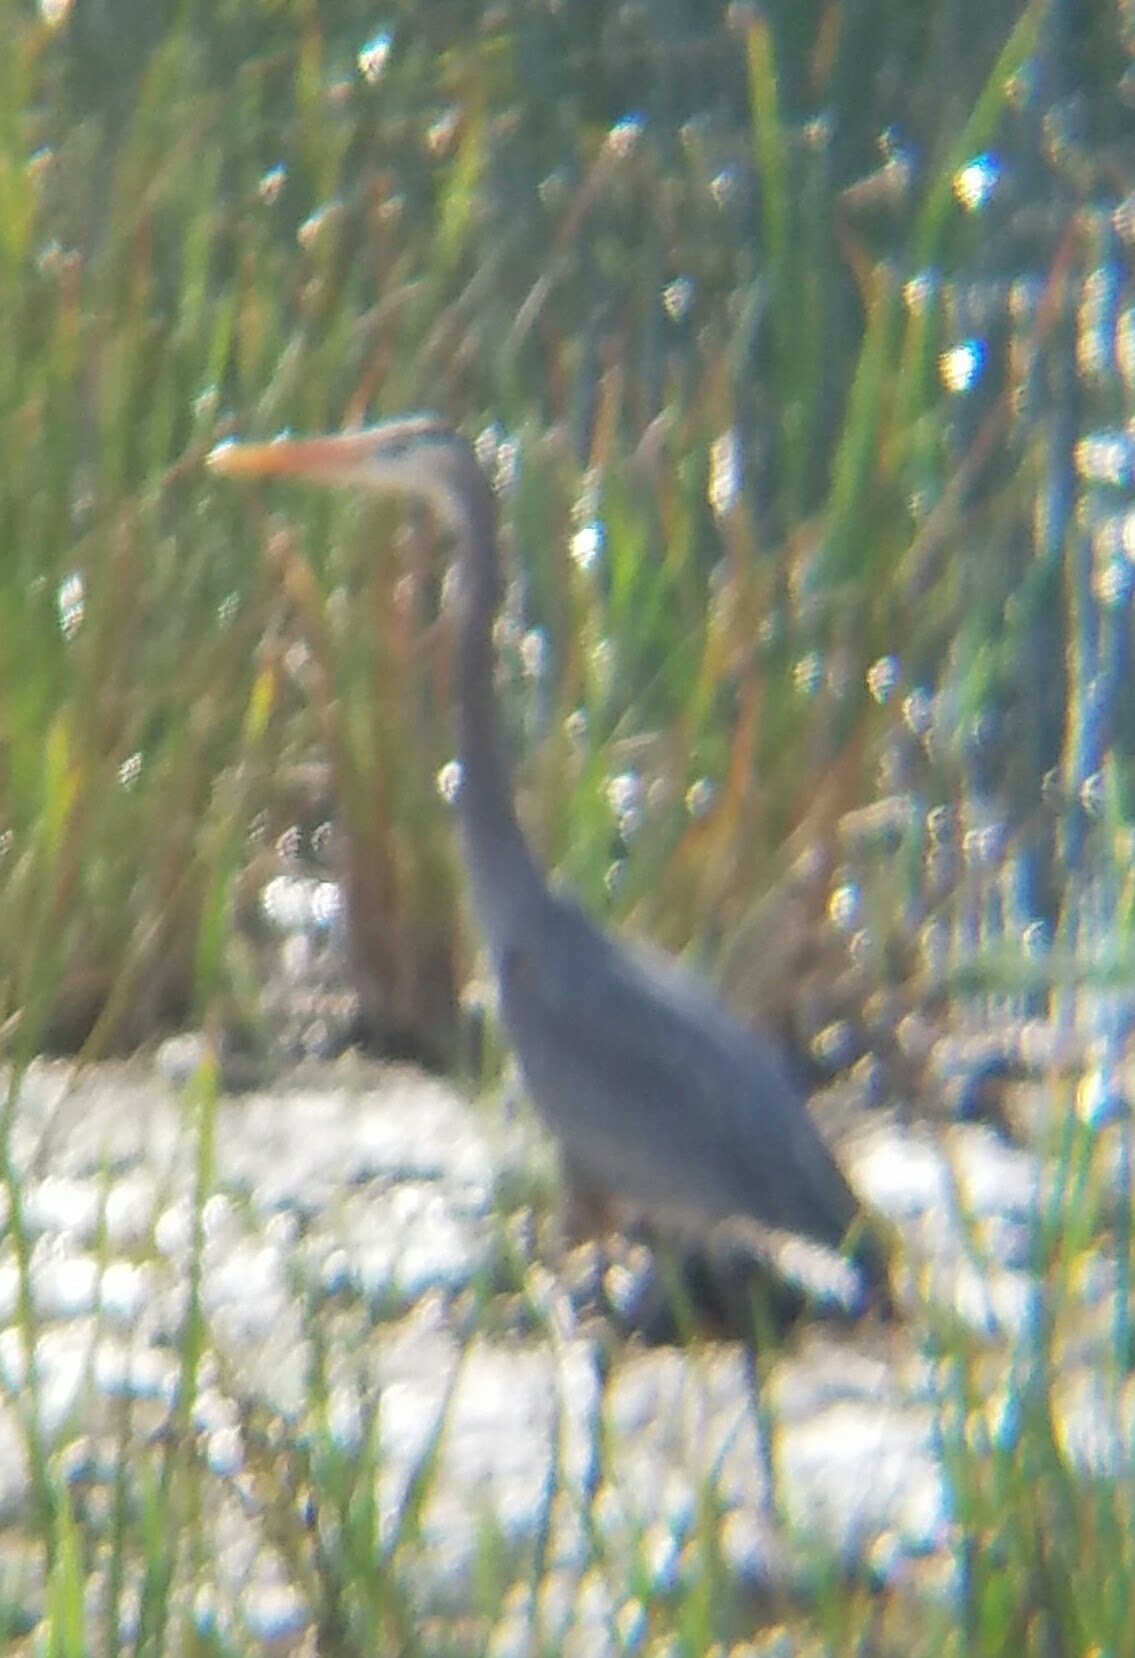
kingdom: Animalia
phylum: Chordata
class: Aves
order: Pelecaniformes
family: Ardeidae
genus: Ardea
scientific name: Ardea herodias
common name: Great blue heron
